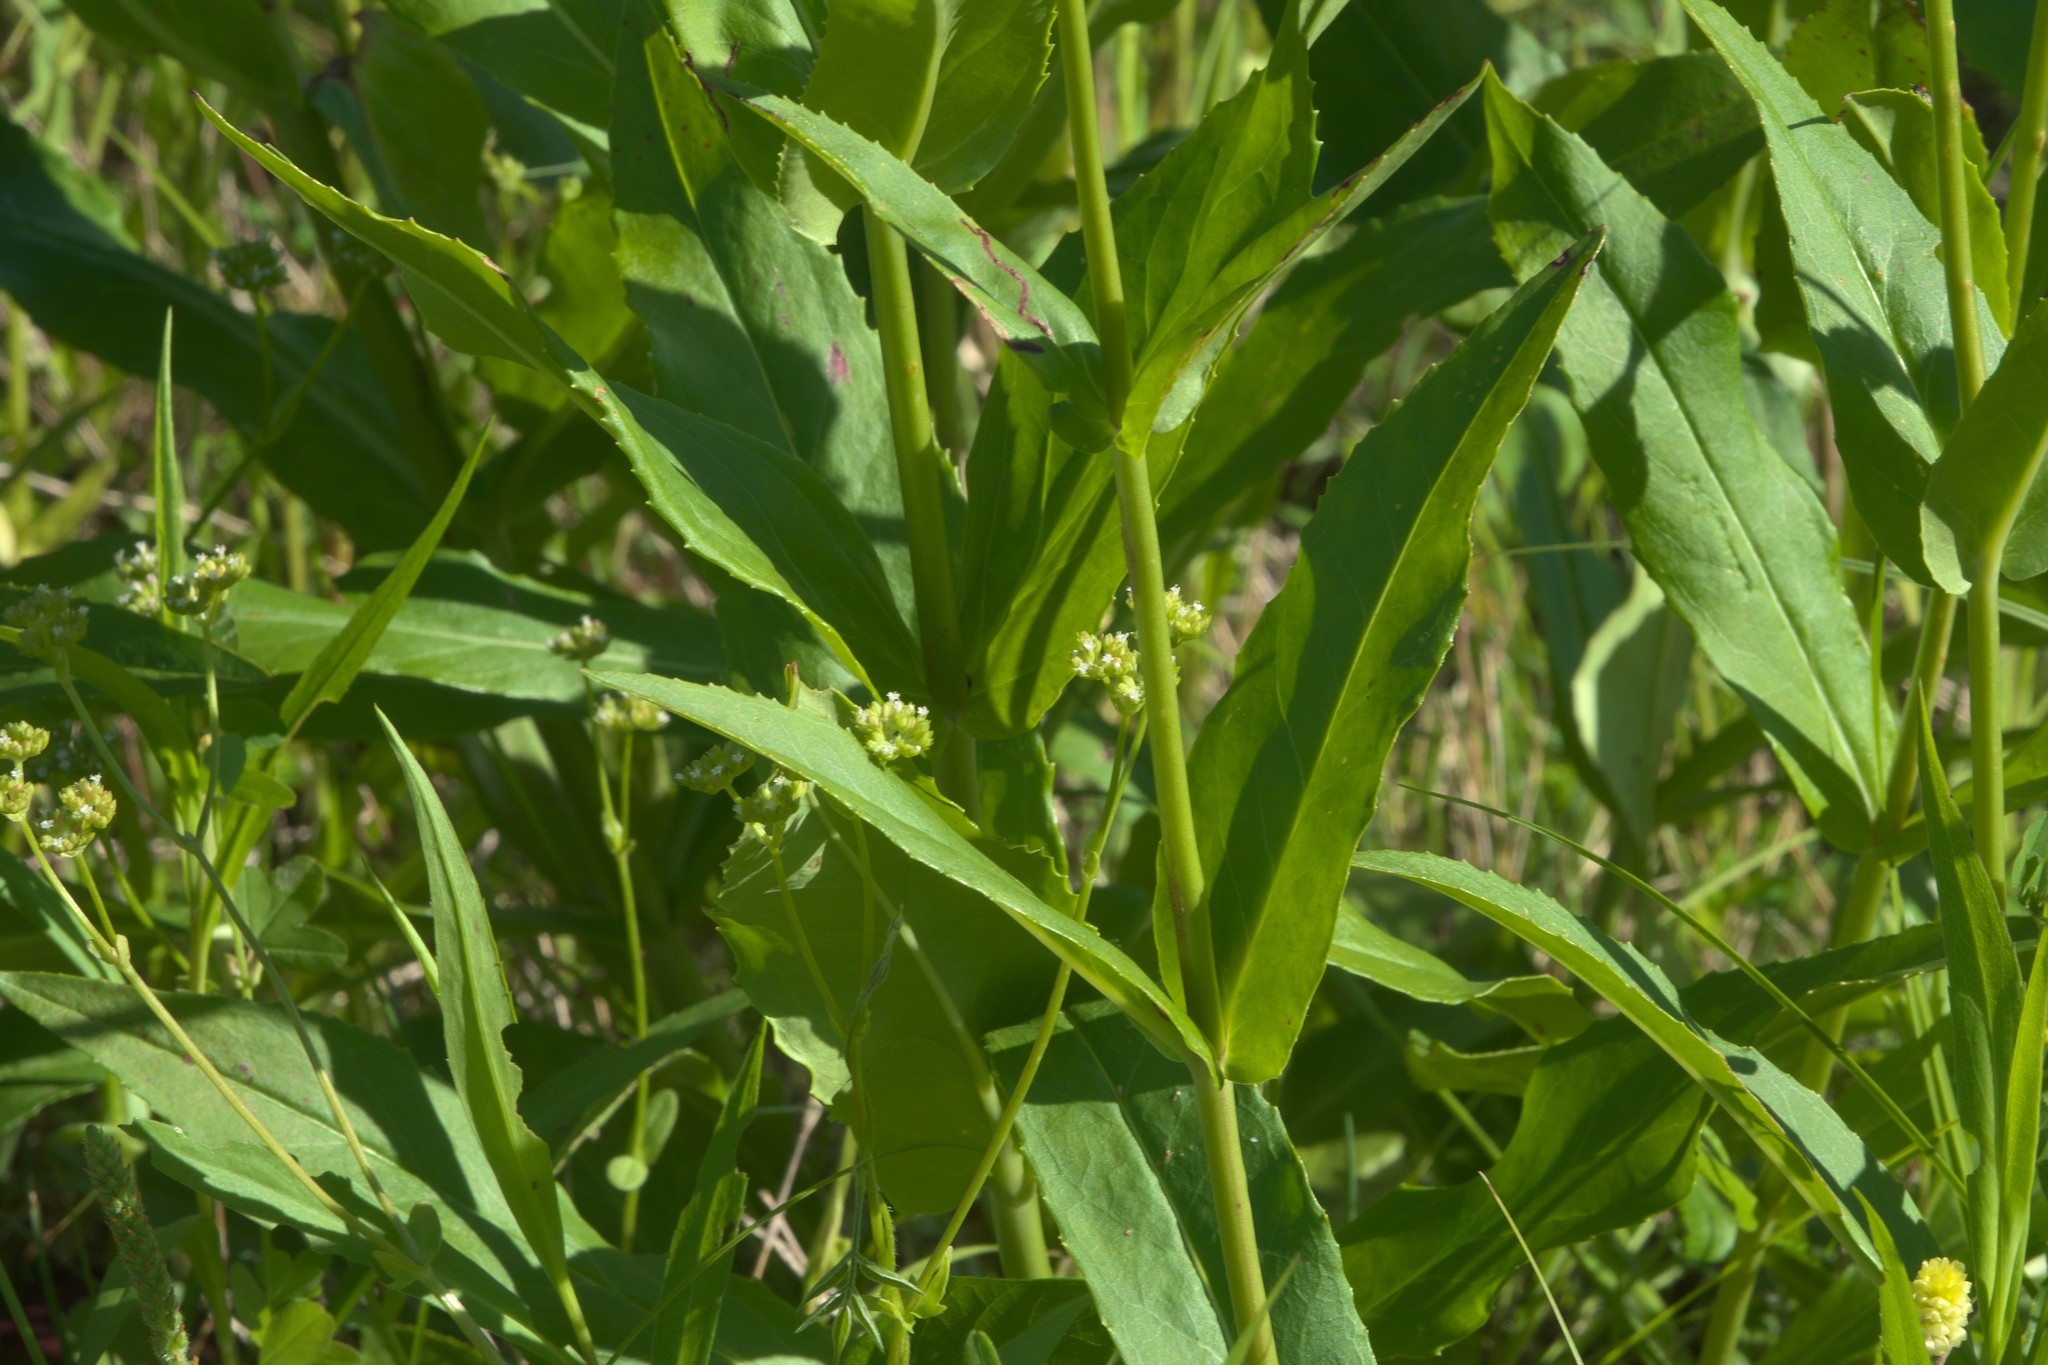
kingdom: Plantae
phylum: Tracheophyta
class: Magnoliopsida
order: Lamiales
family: Plantaginaceae
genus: Penstemon
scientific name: Penstemon digitalis
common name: Foxglove beardtongue
